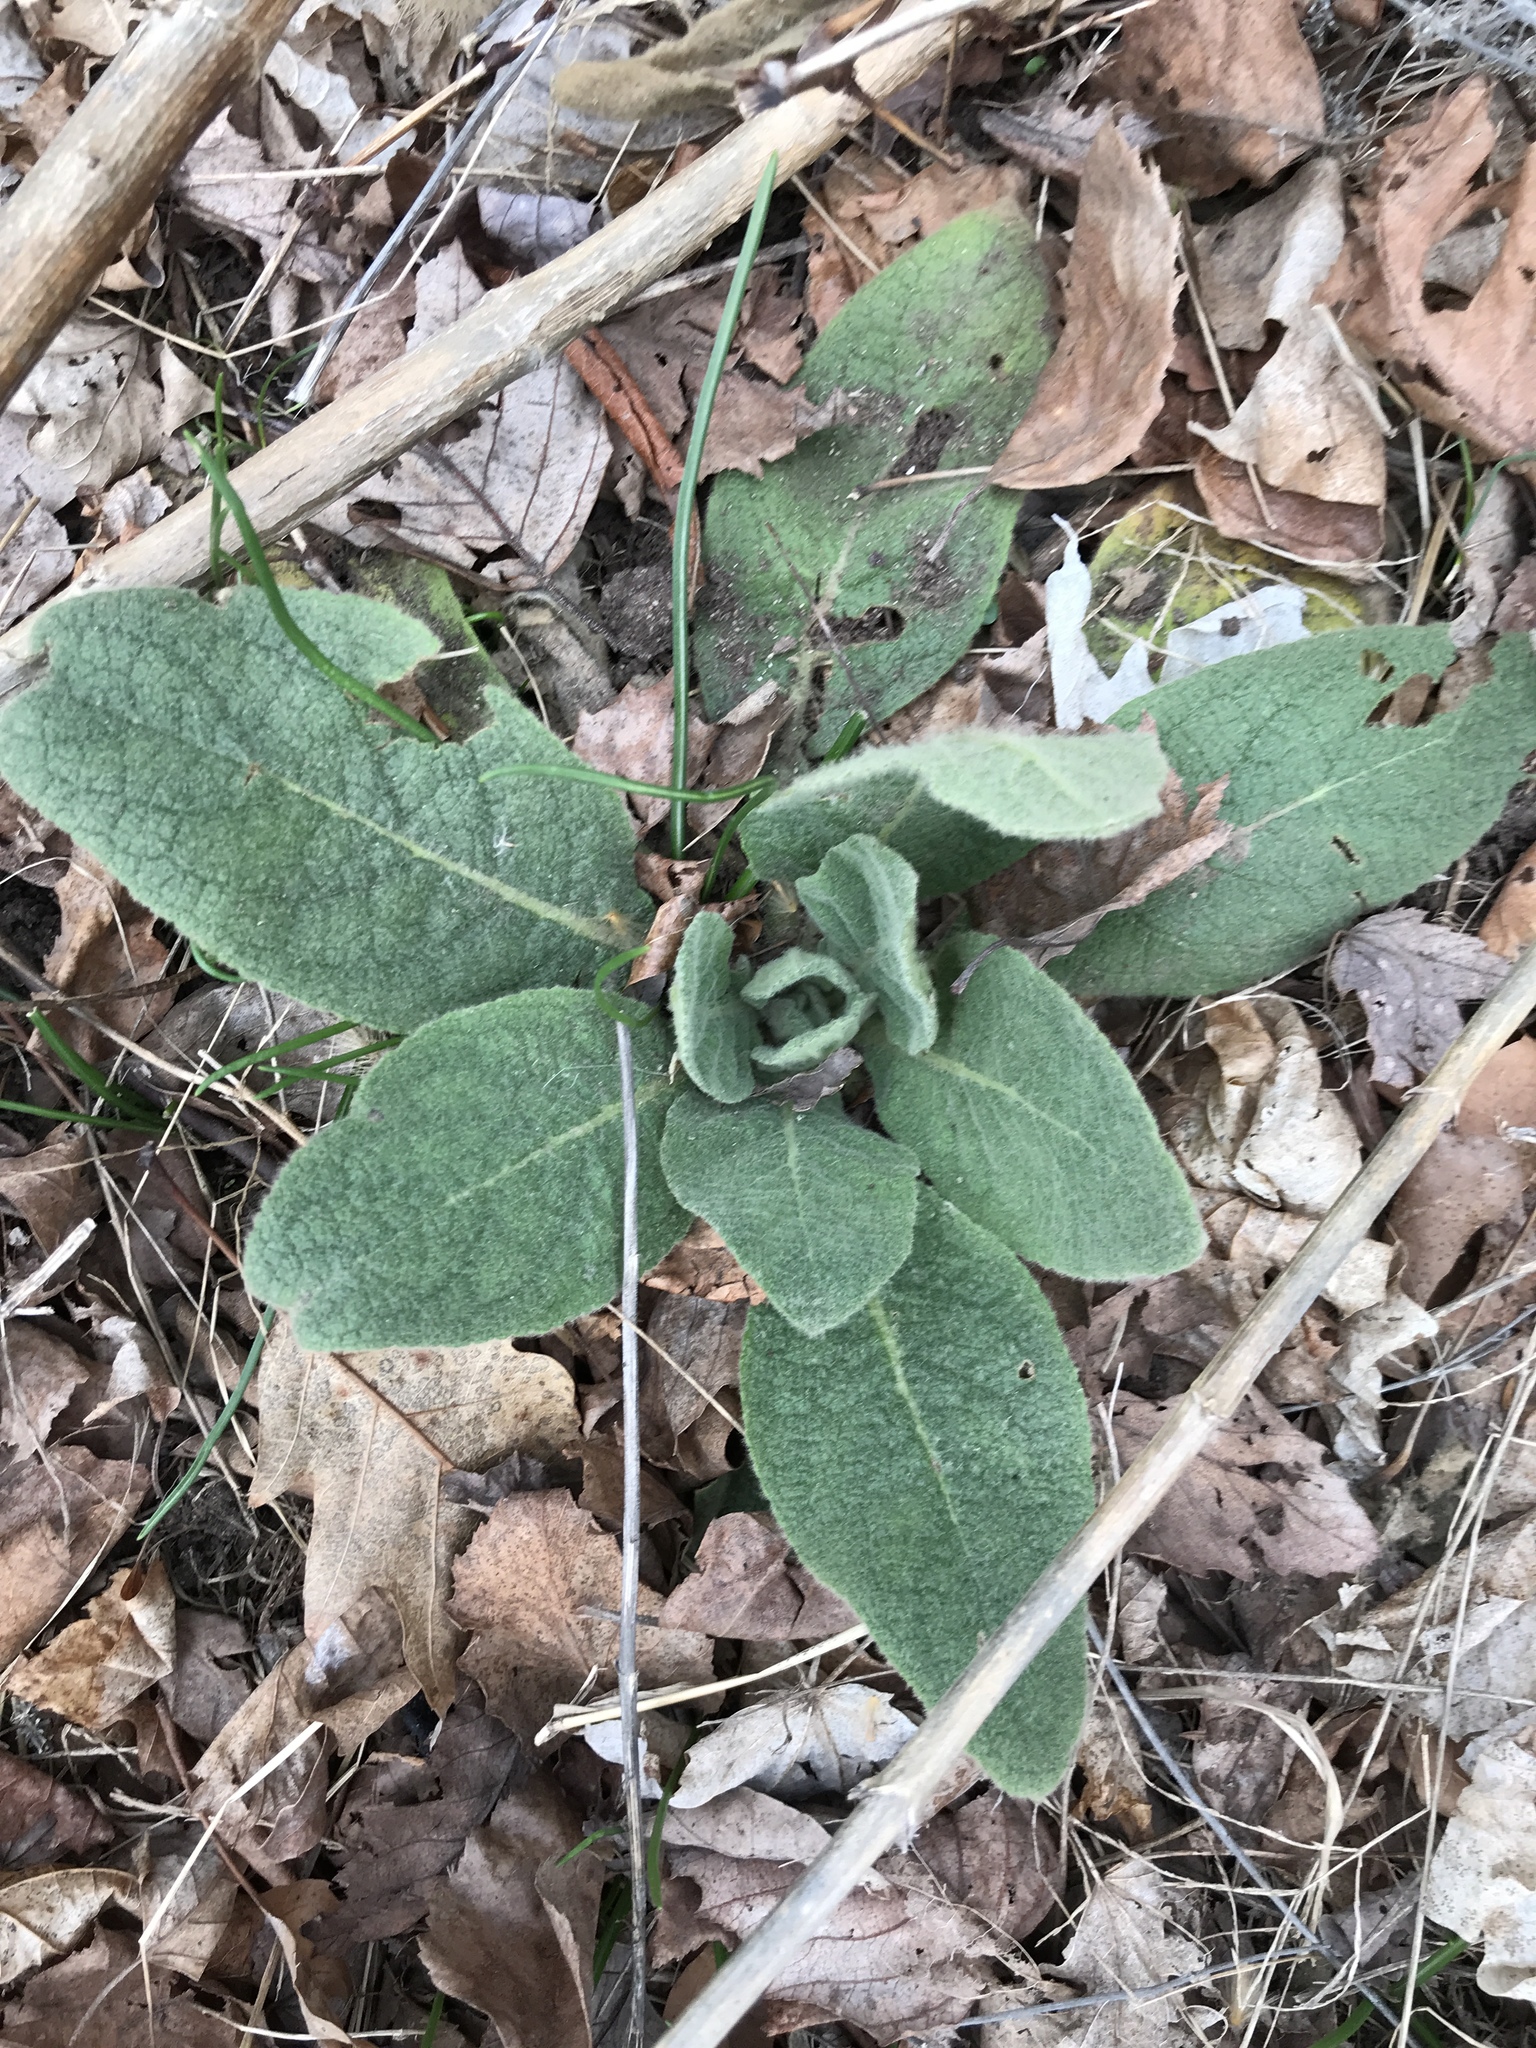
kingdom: Plantae
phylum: Tracheophyta
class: Magnoliopsida
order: Lamiales
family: Scrophulariaceae
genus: Verbascum
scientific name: Verbascum thapsus
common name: Common mullein
